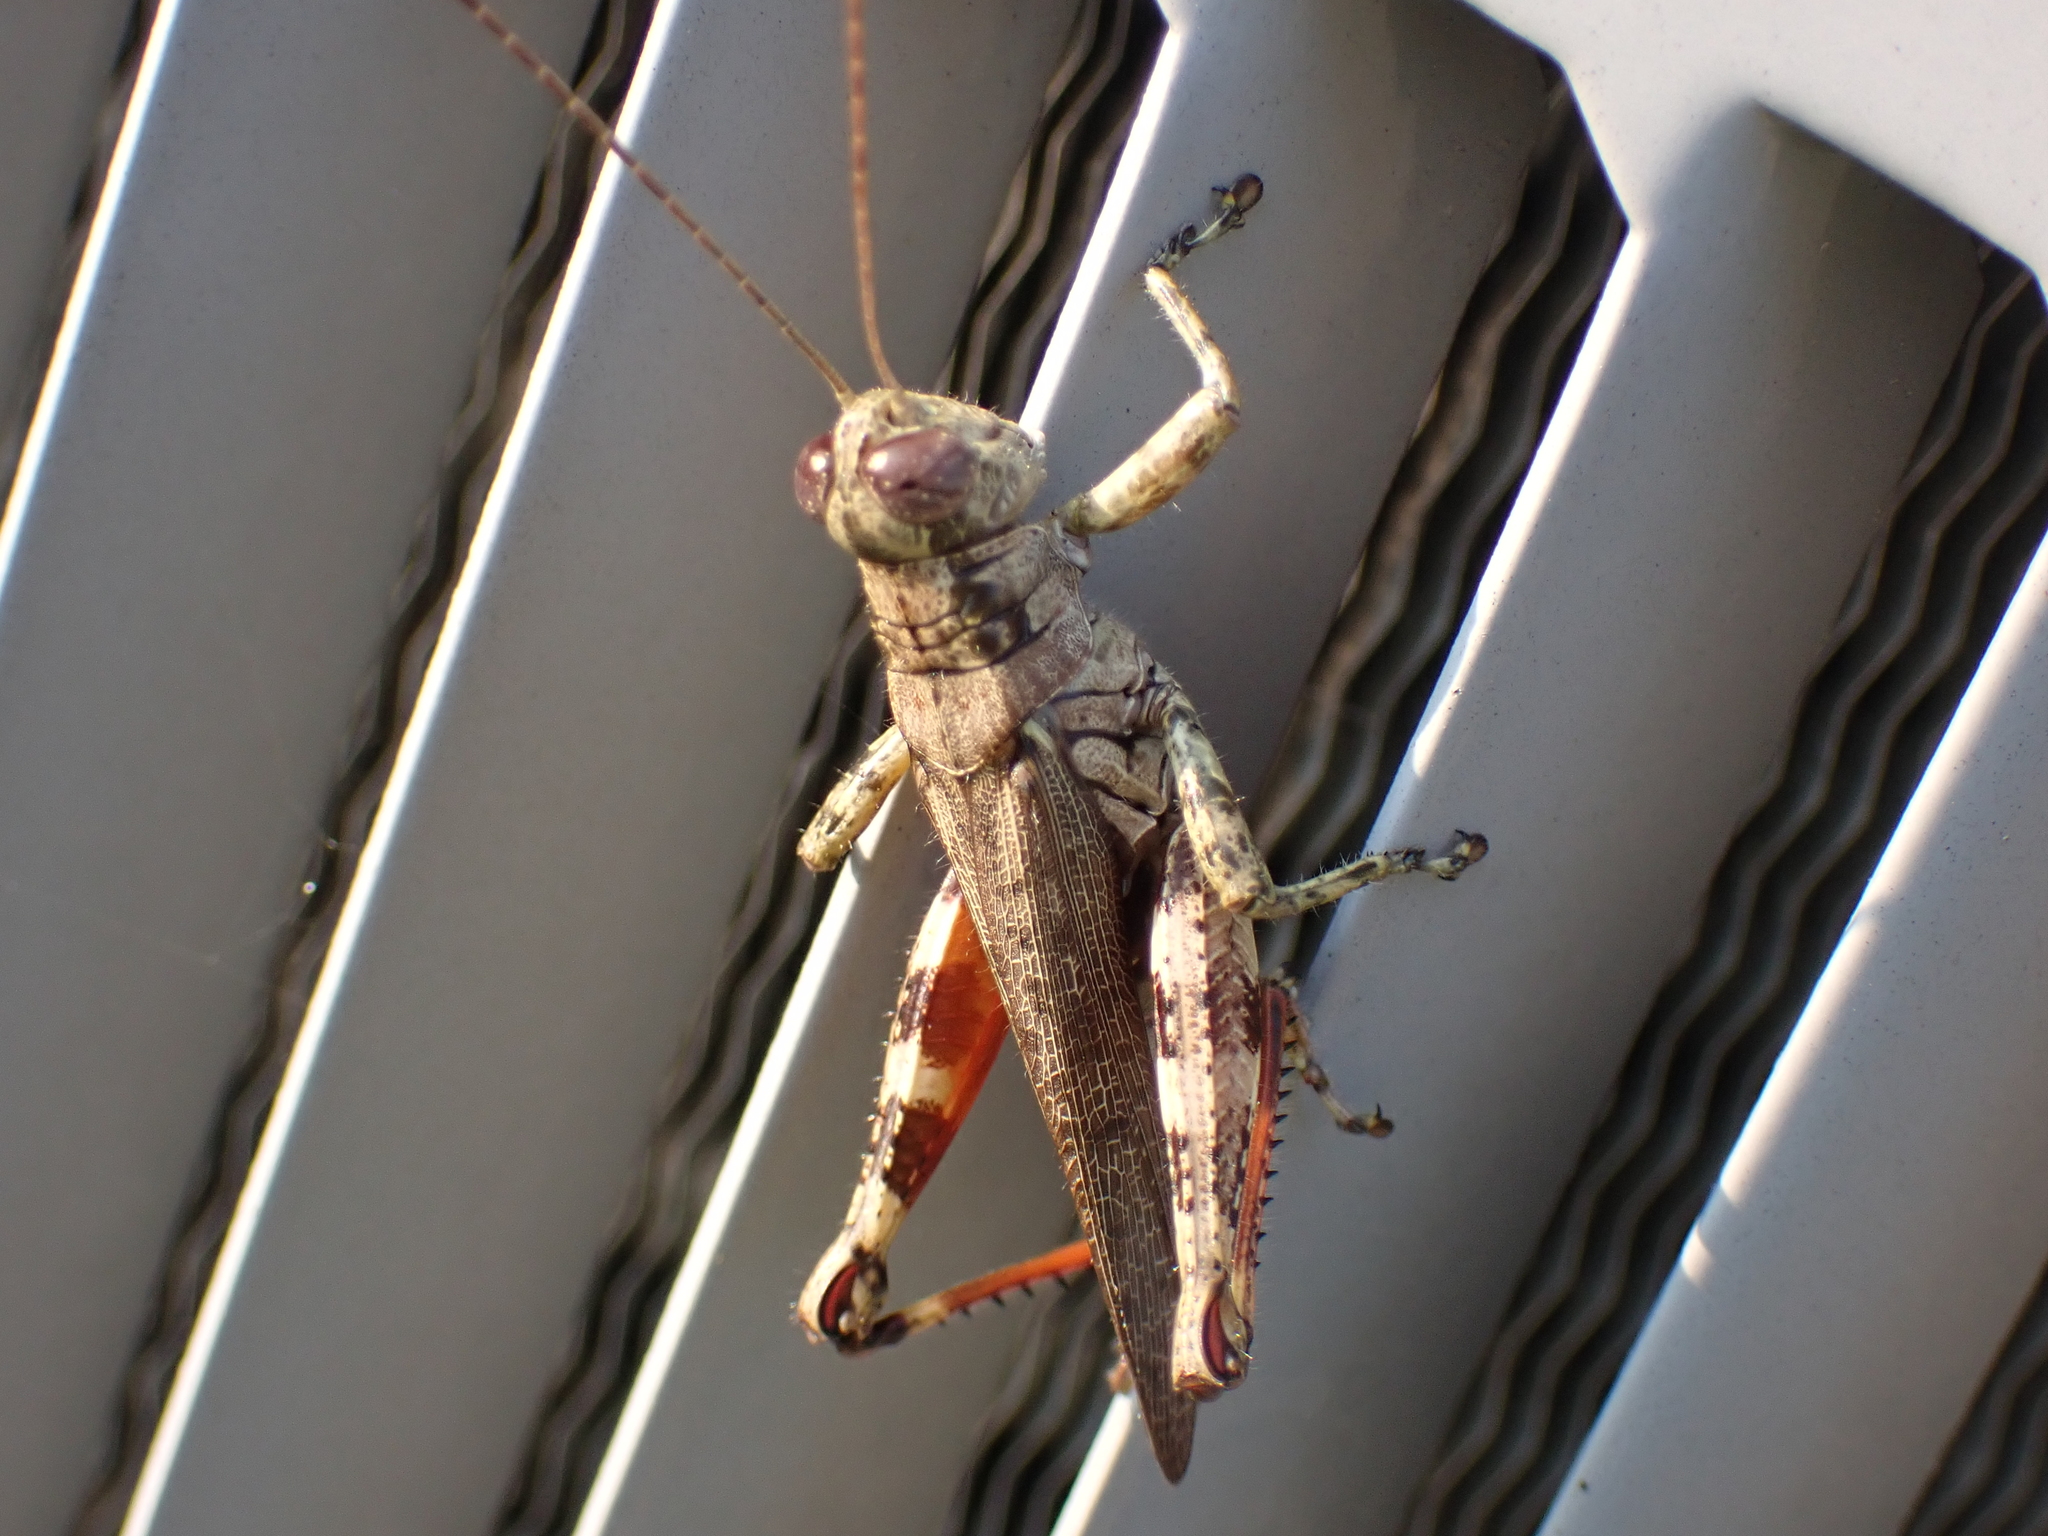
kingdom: Animalia
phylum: Arthropoda
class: Insecta
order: Orthoptera
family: Acrididae
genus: Melanoplus
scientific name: Melanoplus punctulatus
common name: Pine-tree spur-throat grasshopper
